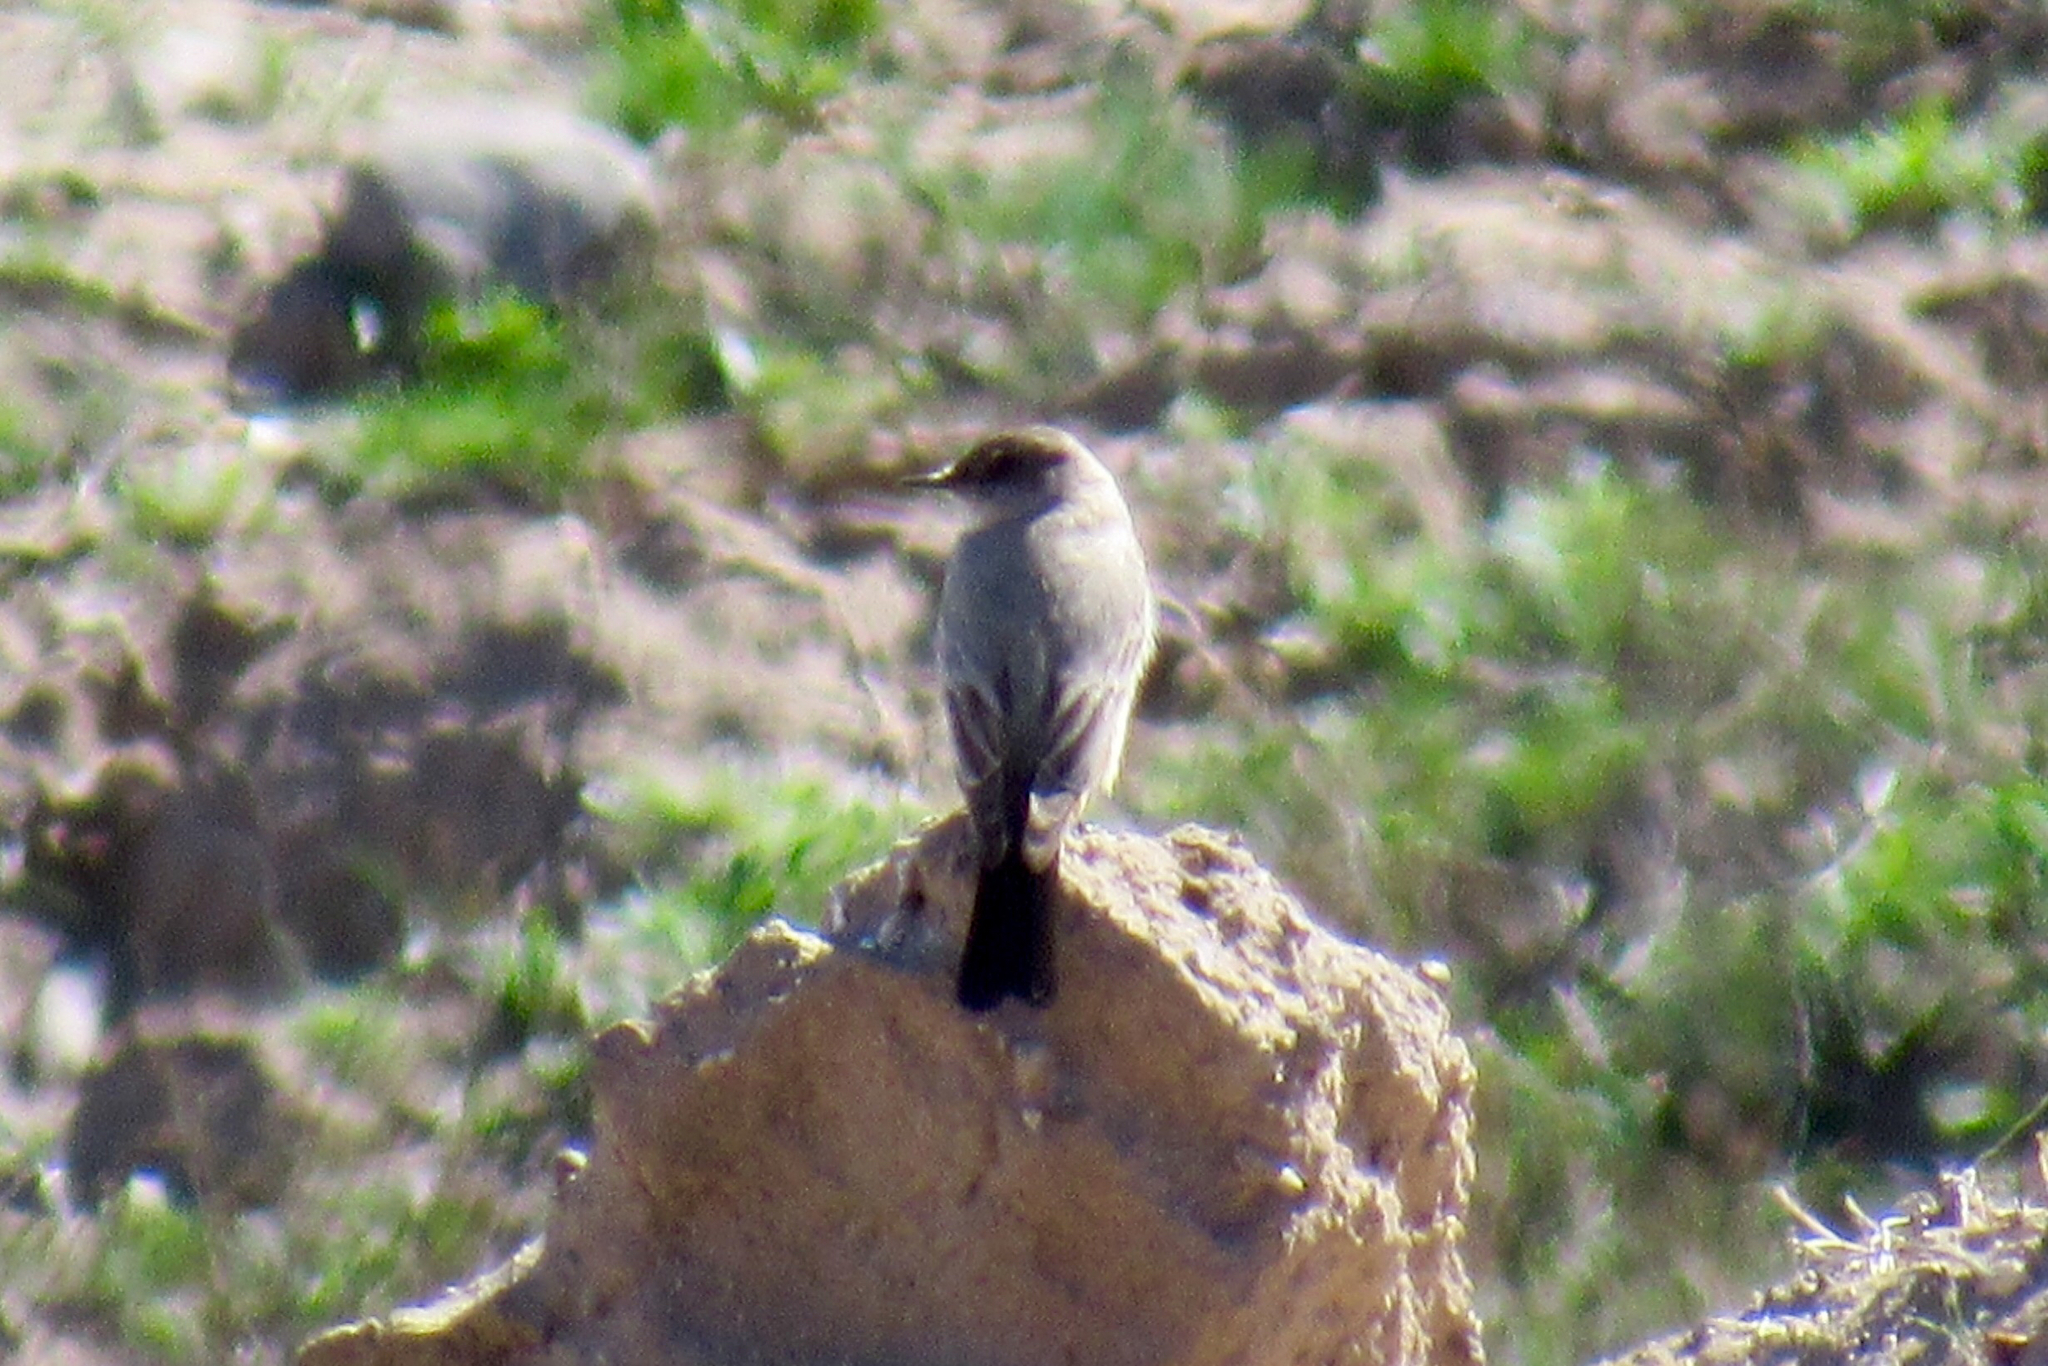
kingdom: Animalia
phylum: Chordata
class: Aves
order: Passeriformes
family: Tyrannidae
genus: Sayornis
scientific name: Sayornis saya
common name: Say's phoebe
